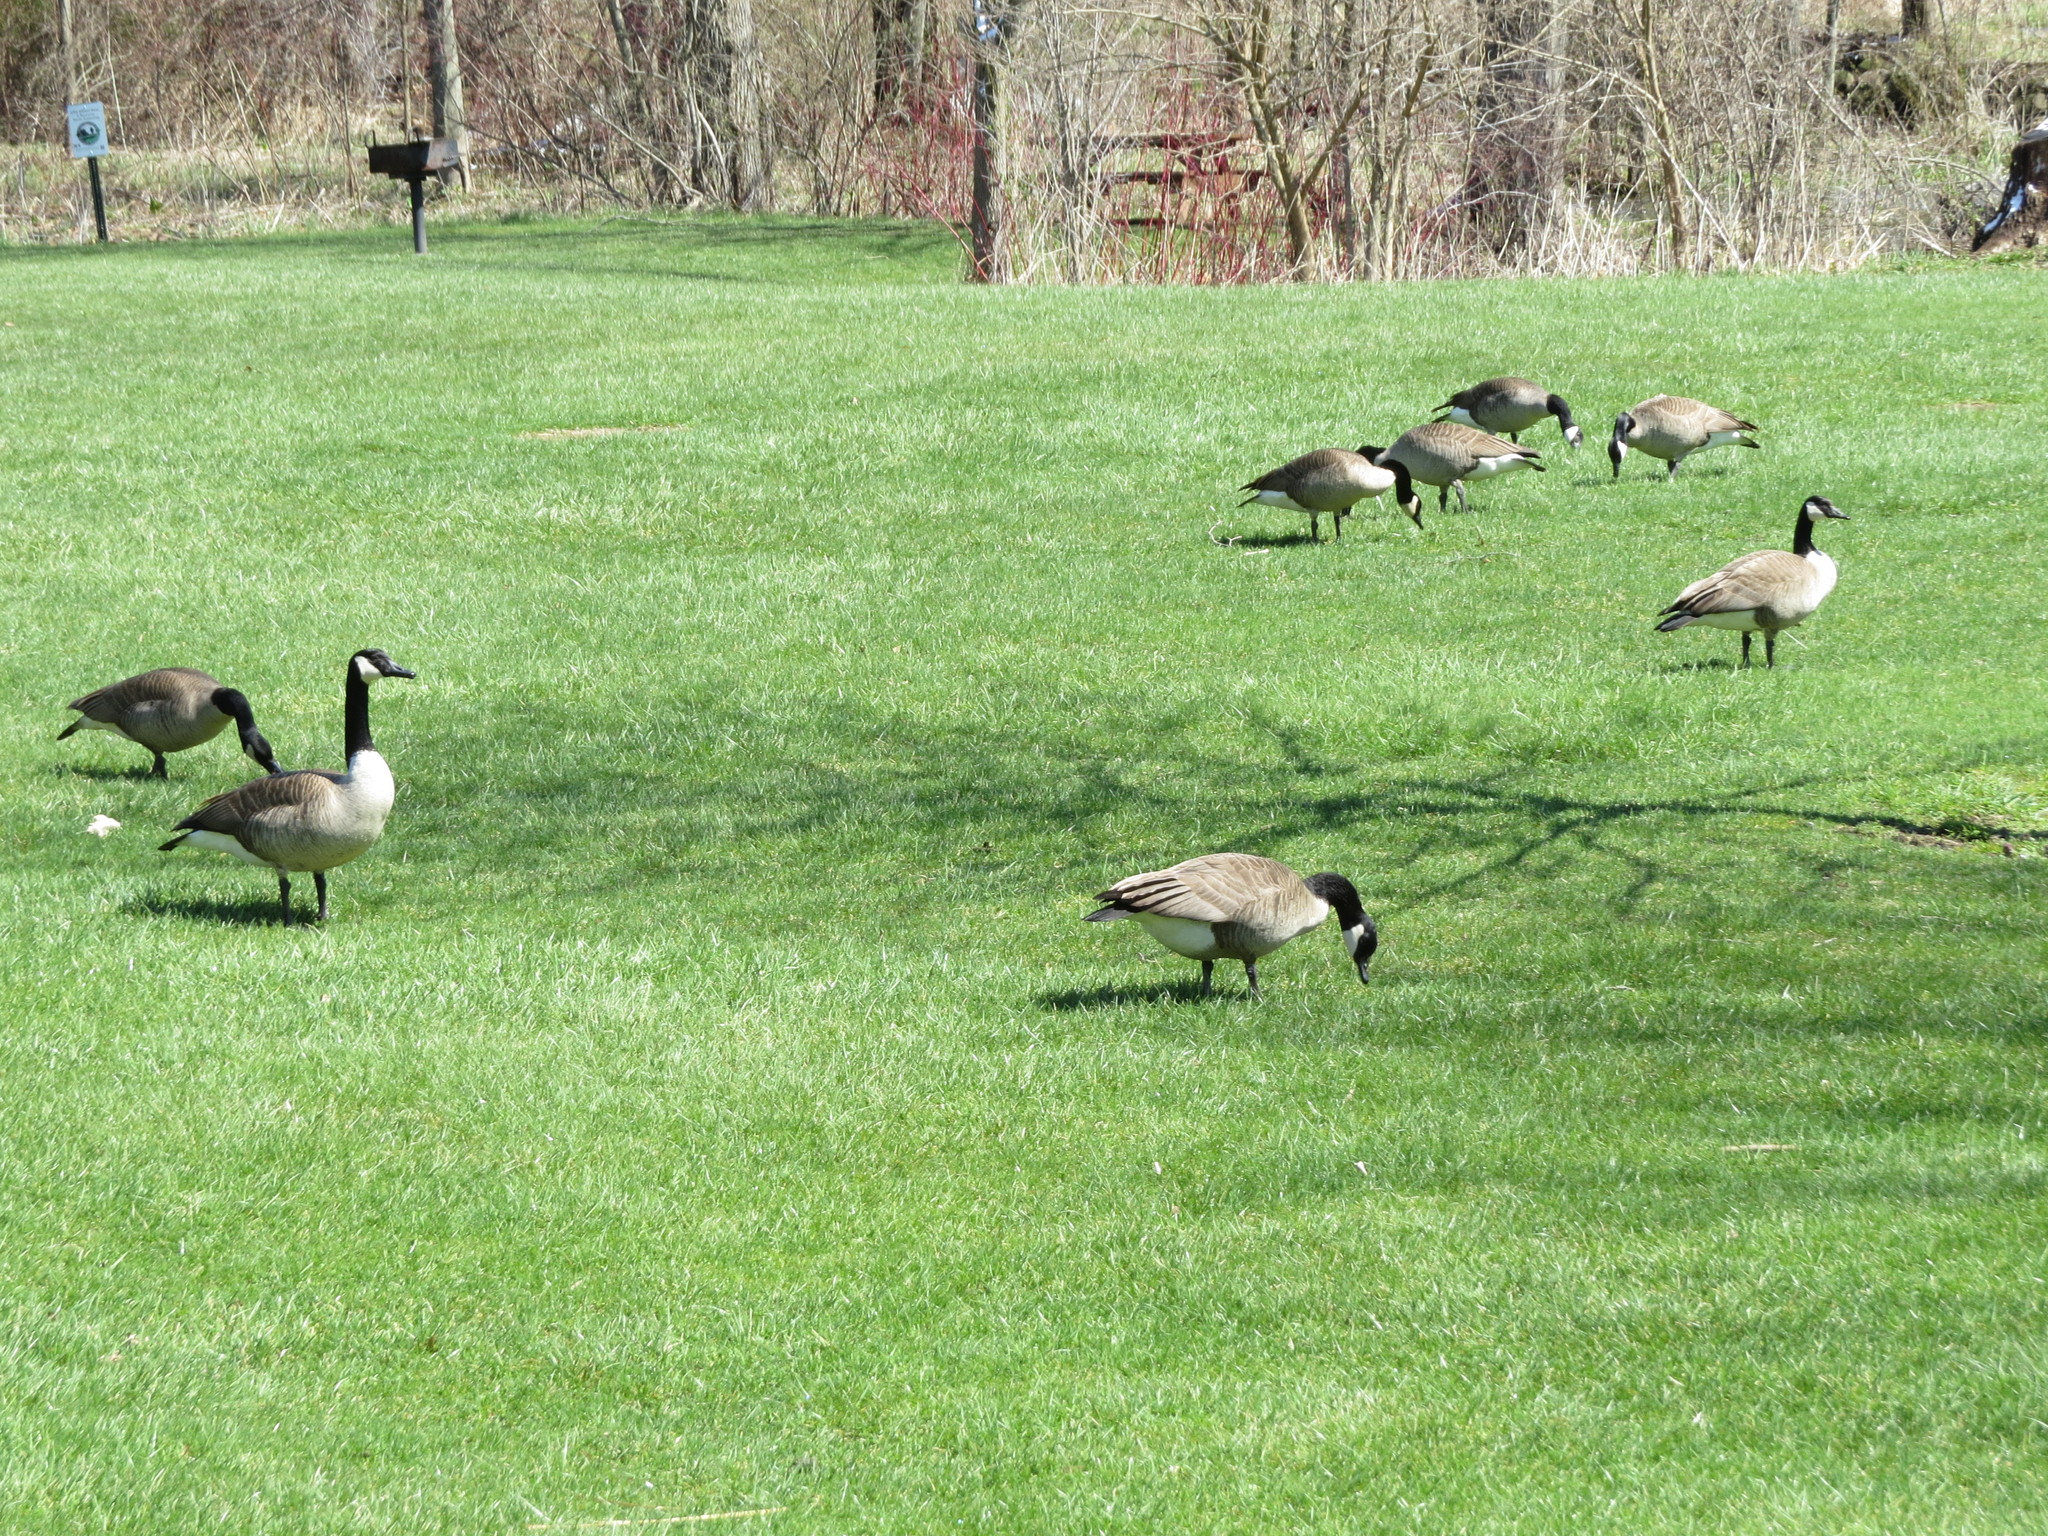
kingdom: Animalia
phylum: Chordata
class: Aves
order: Anseriformes
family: Anatidae
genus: Branta
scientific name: Branta canadensis
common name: Canada goose
